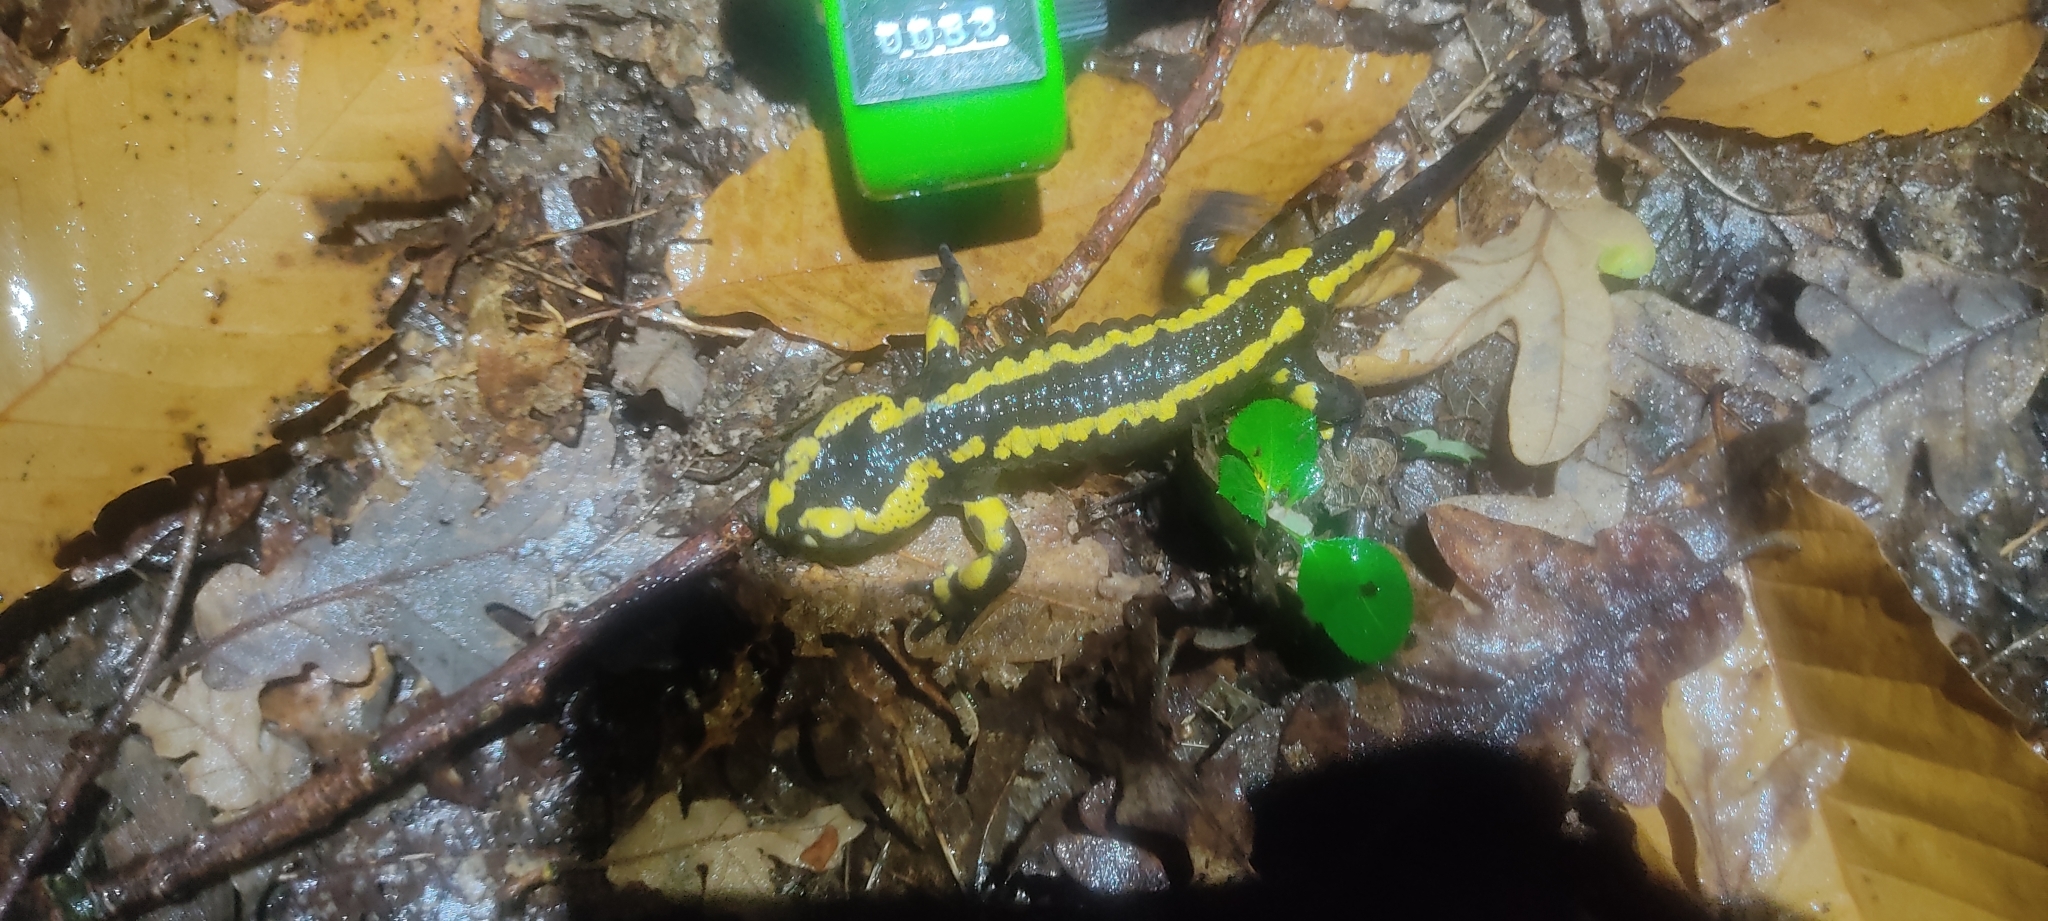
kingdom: Animalia
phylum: Chordata
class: Amphibia
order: Caudata
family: Salamandridae
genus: Salamandra
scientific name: Salamandra salamandra
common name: Fire salamander
